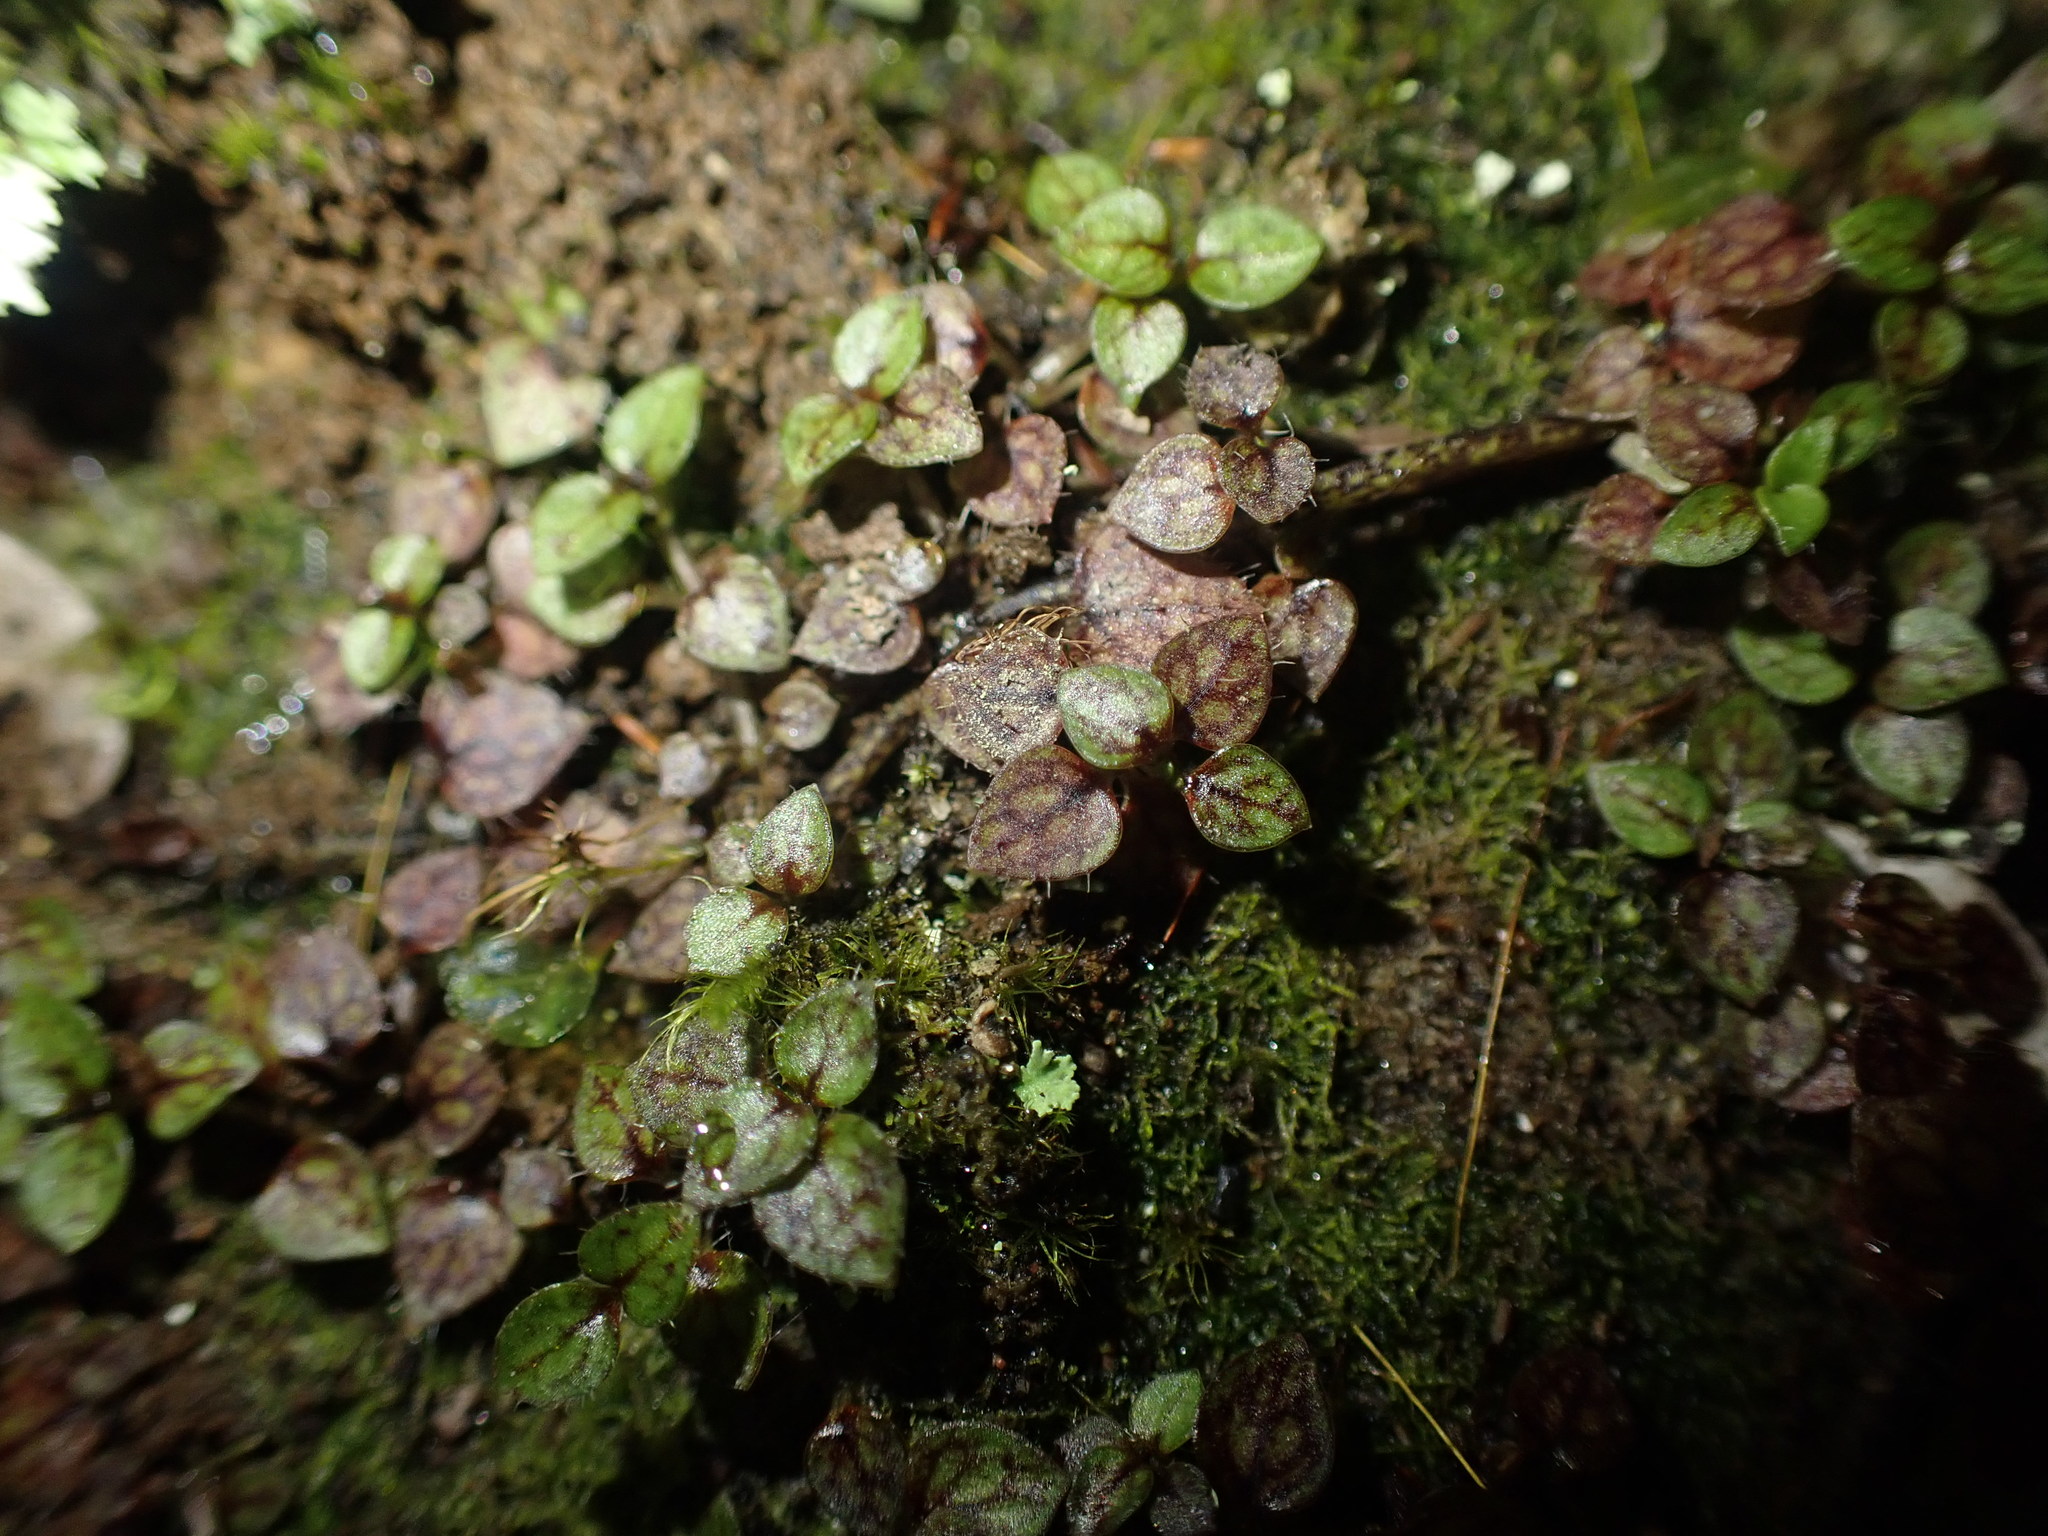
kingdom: Plantae
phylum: Tracheophyta
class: Magnoliopsida
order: Gentianales
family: Rubiaceae
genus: Nertera
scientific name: Nertera ciliata
